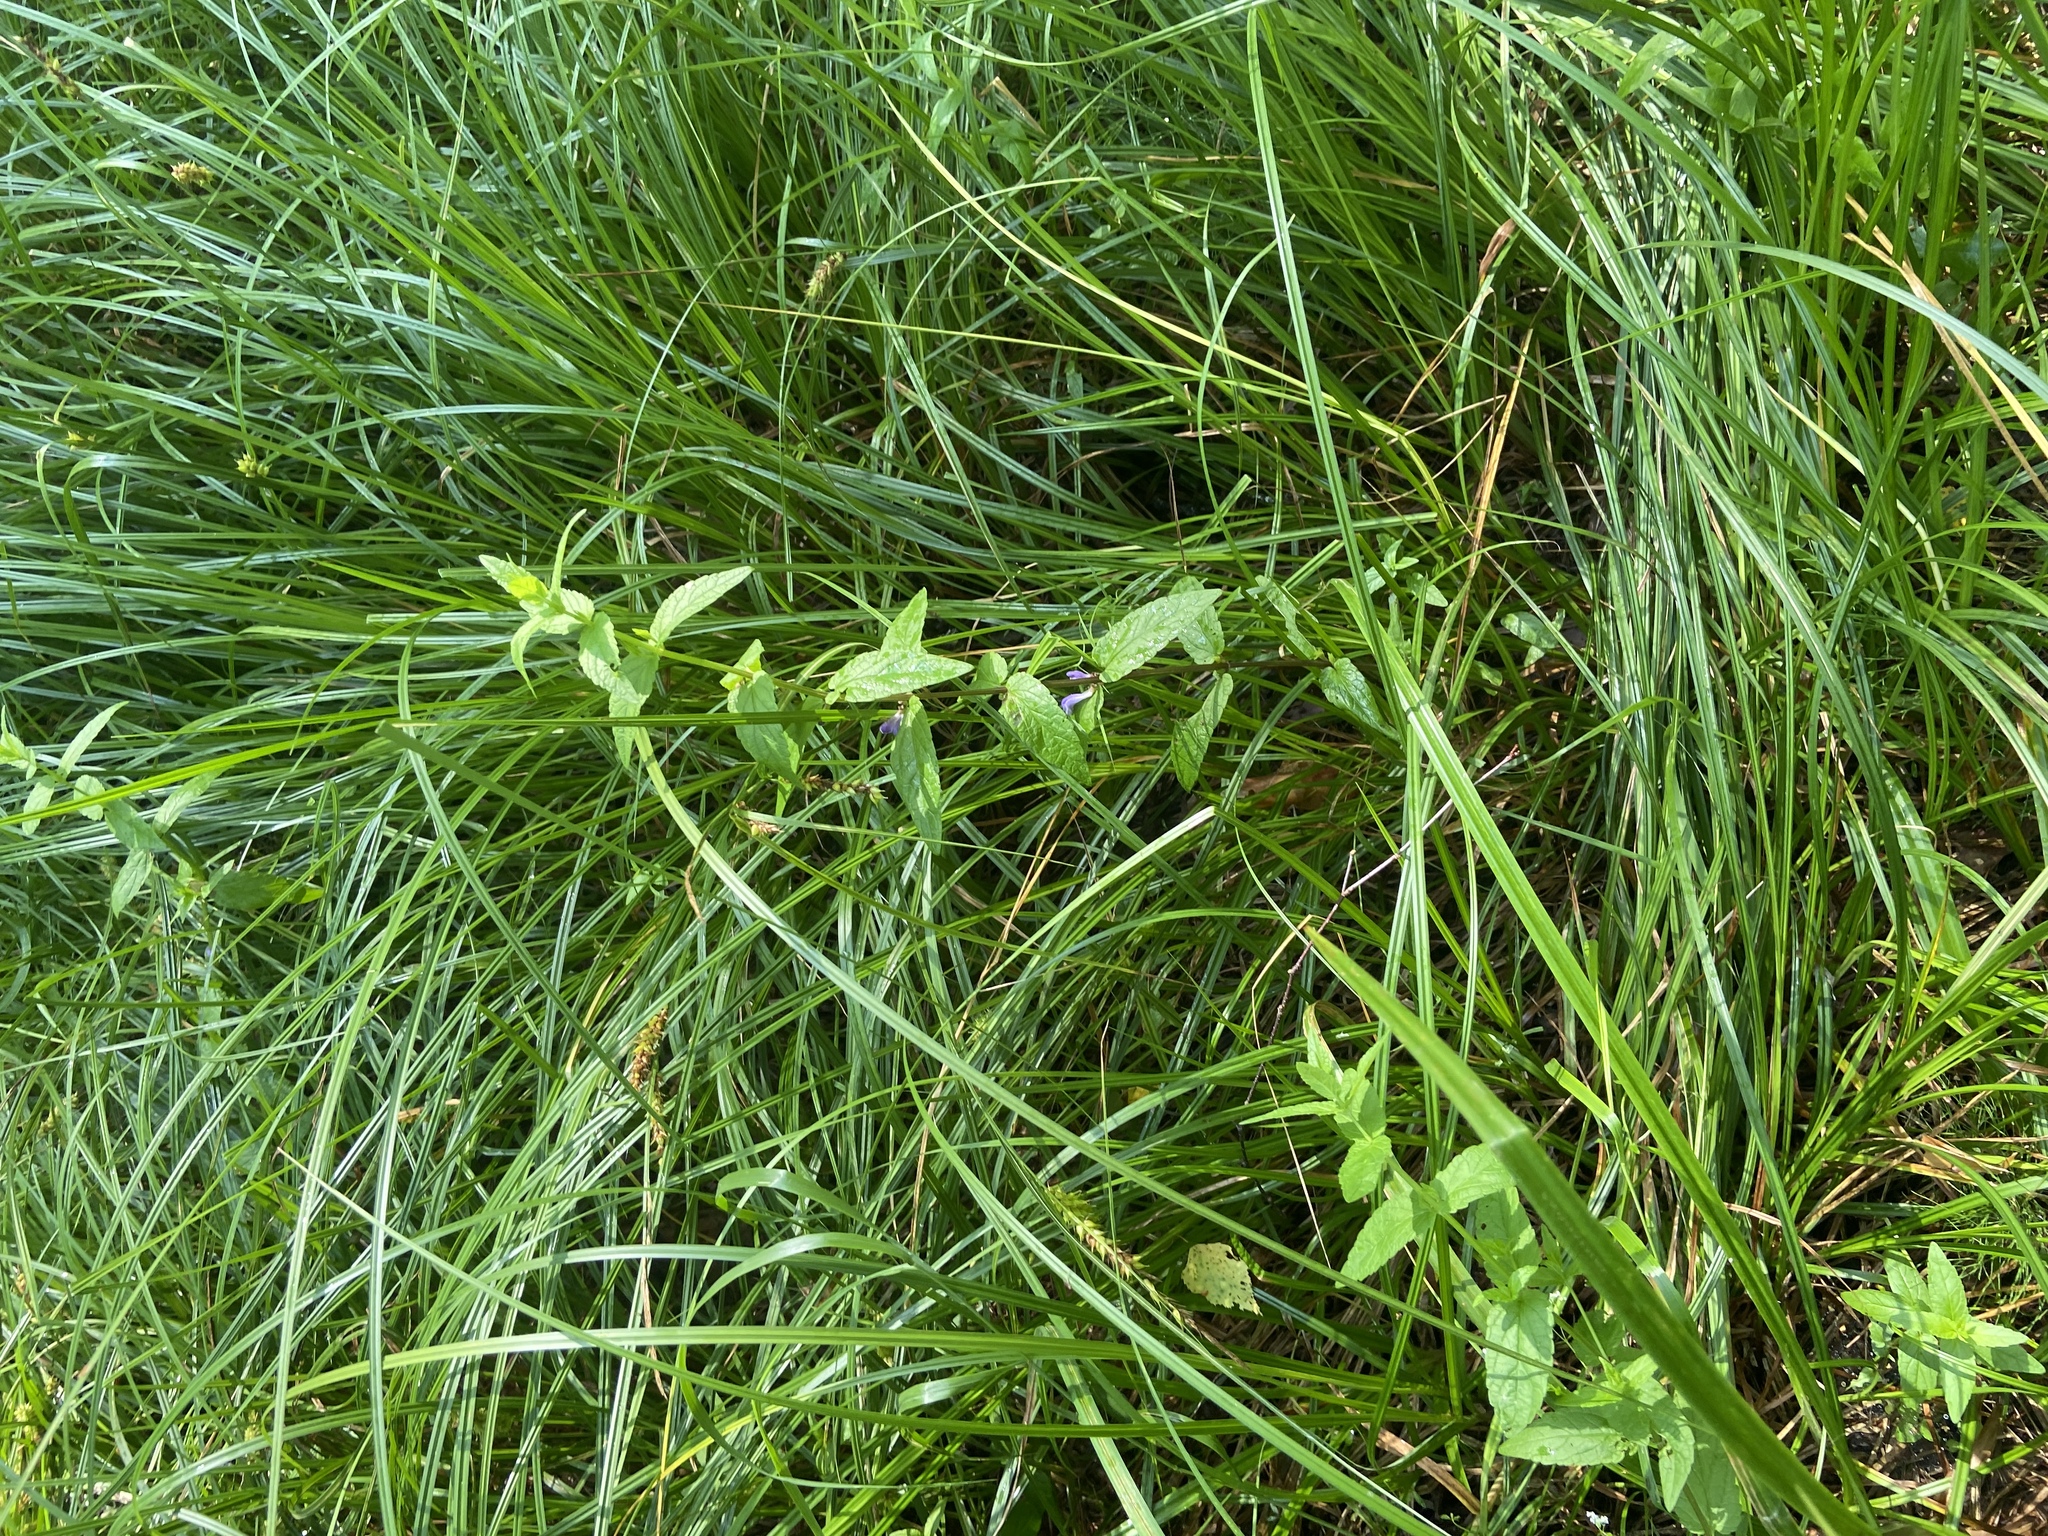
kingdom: Plantae
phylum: Tracheophyta
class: Magnoliopsida
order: Lamiales
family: Lamiaceae
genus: Scutellaria
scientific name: Scutellaria galericulata
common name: Skullcap
